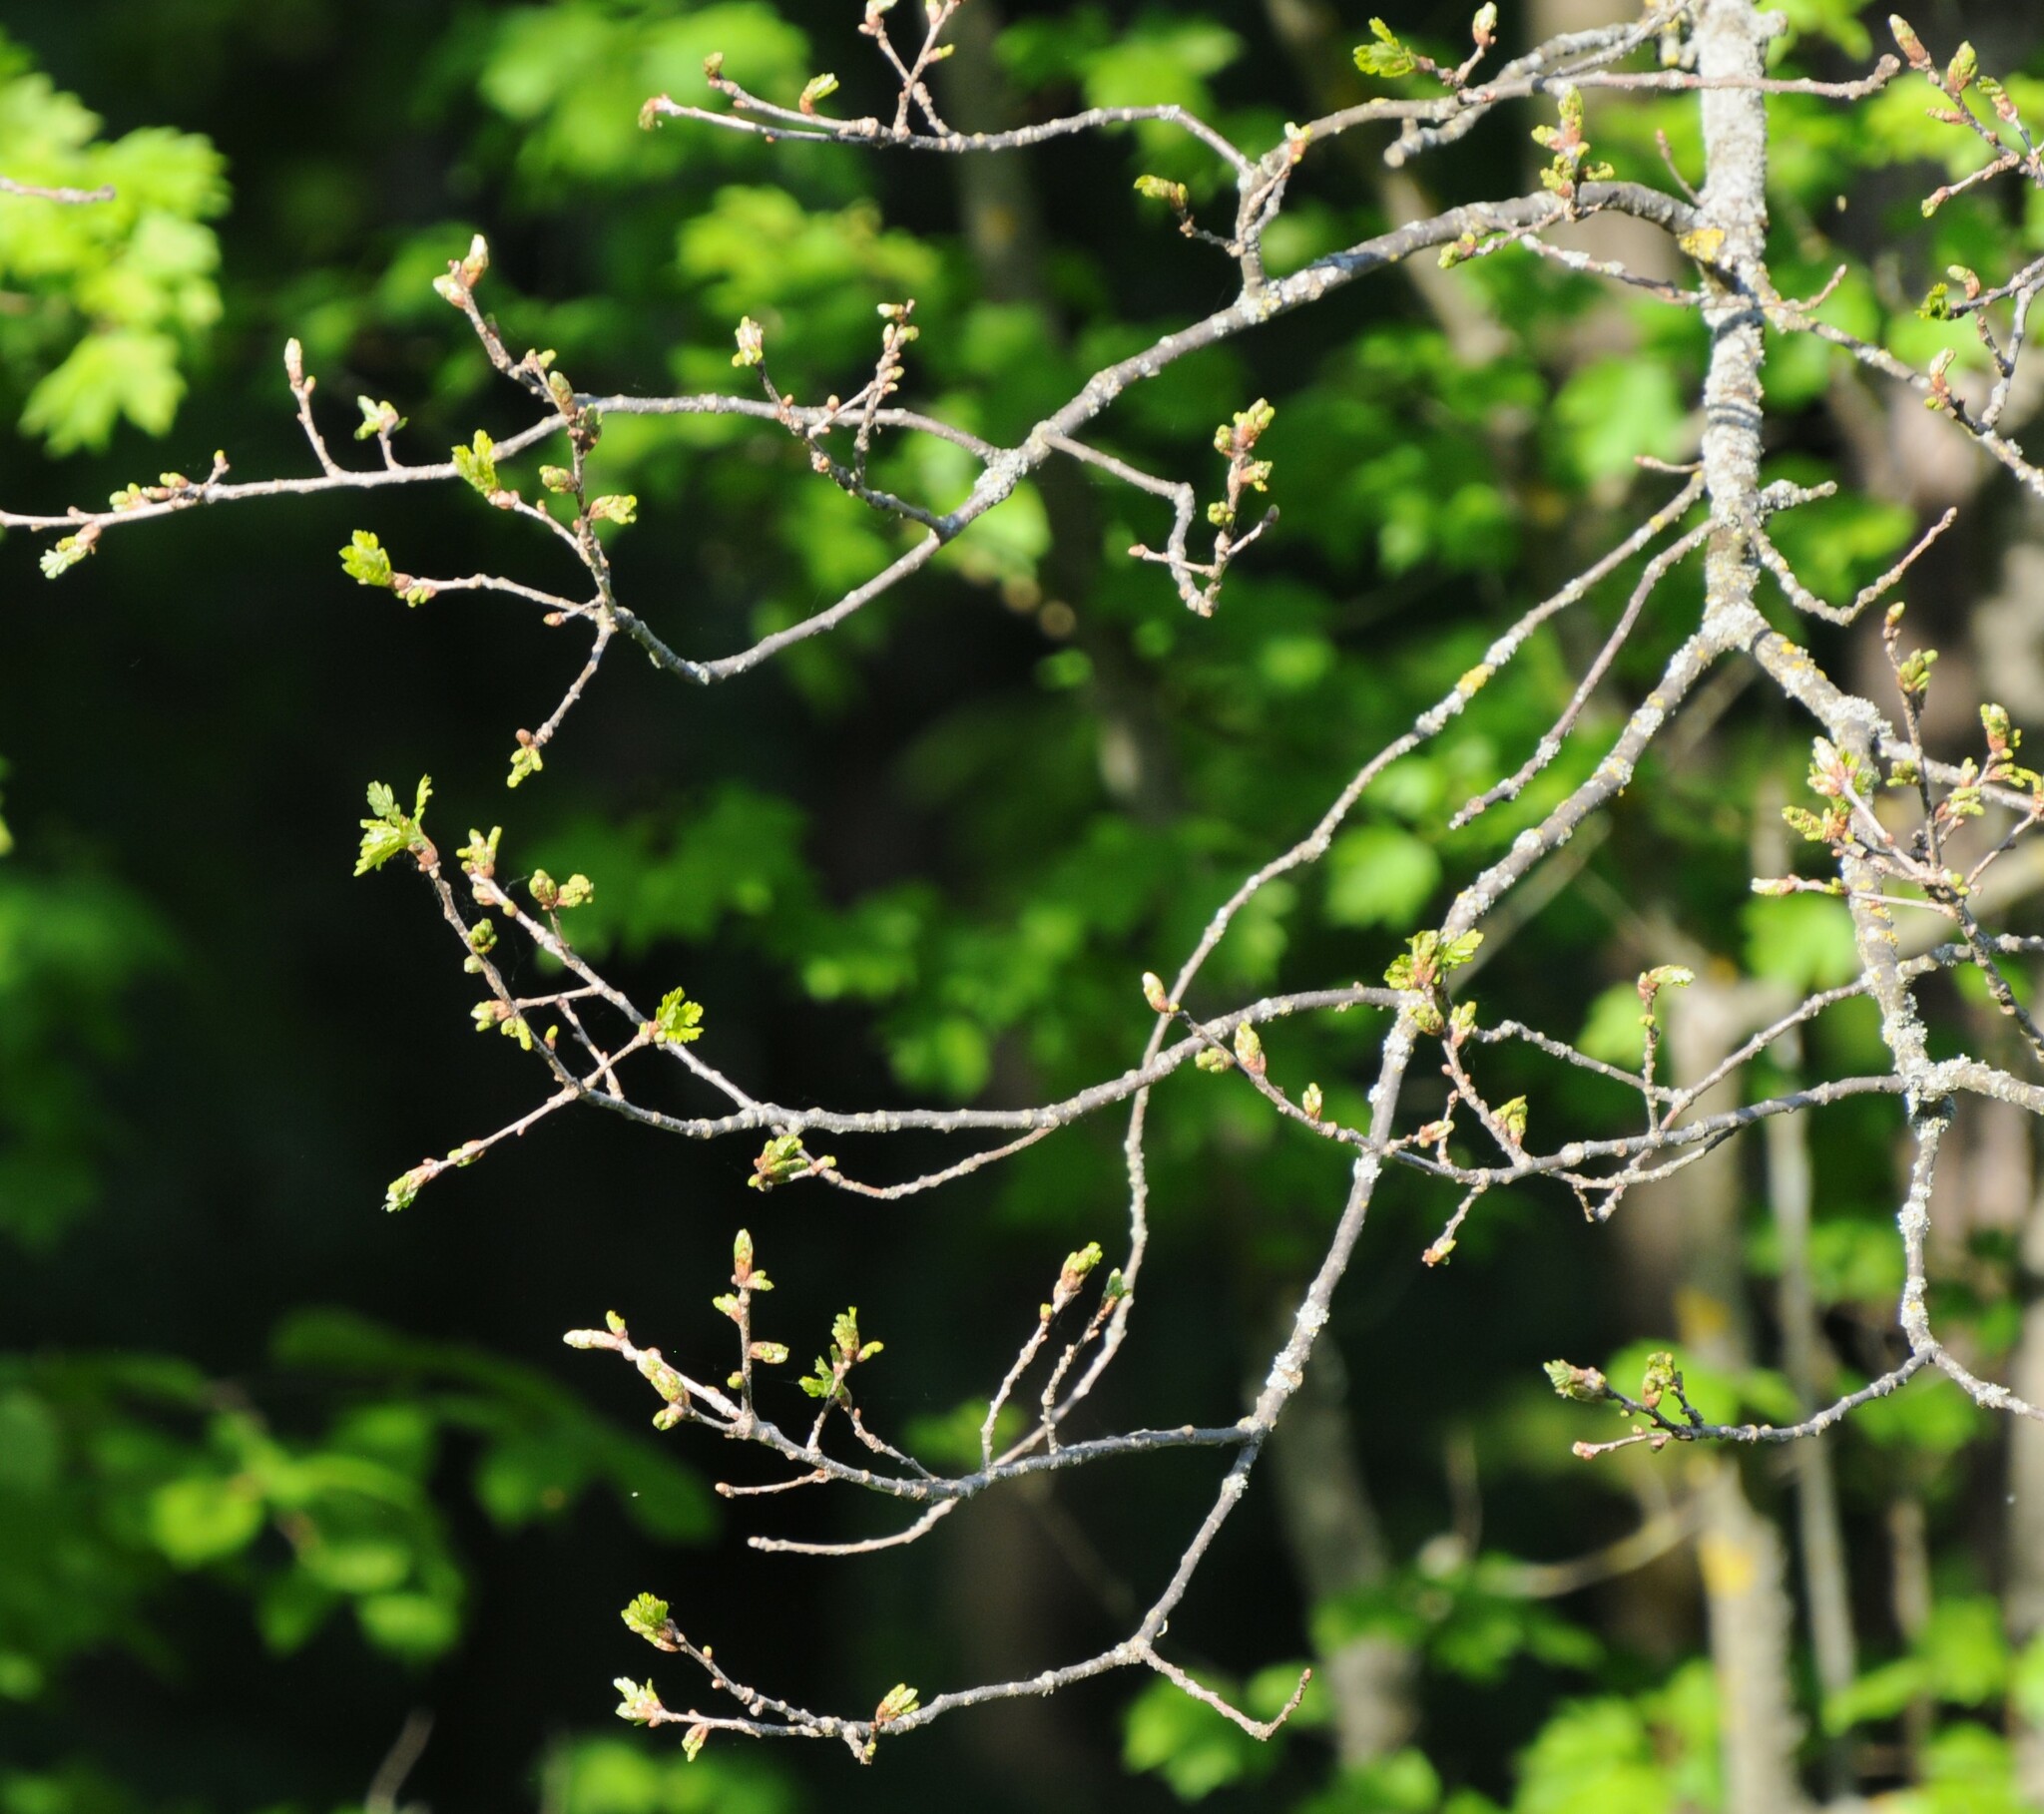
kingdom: Plantae
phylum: Tracheophyta
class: Magnoliopsida
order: Fagales
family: Fagaceae
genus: Quercus
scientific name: Quercus robur
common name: Pedunculate oak
